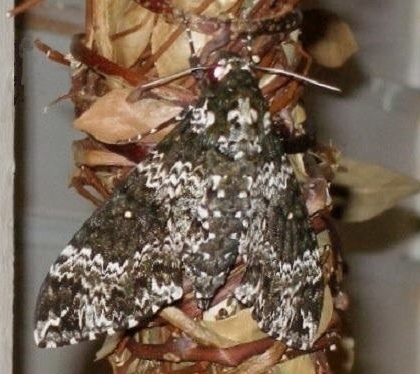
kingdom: Animalia
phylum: Arthropoda
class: Insecta
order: Lepidoptera
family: Sphingidae
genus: Manduca
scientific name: Manduca rustica
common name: Rustic sphinx
